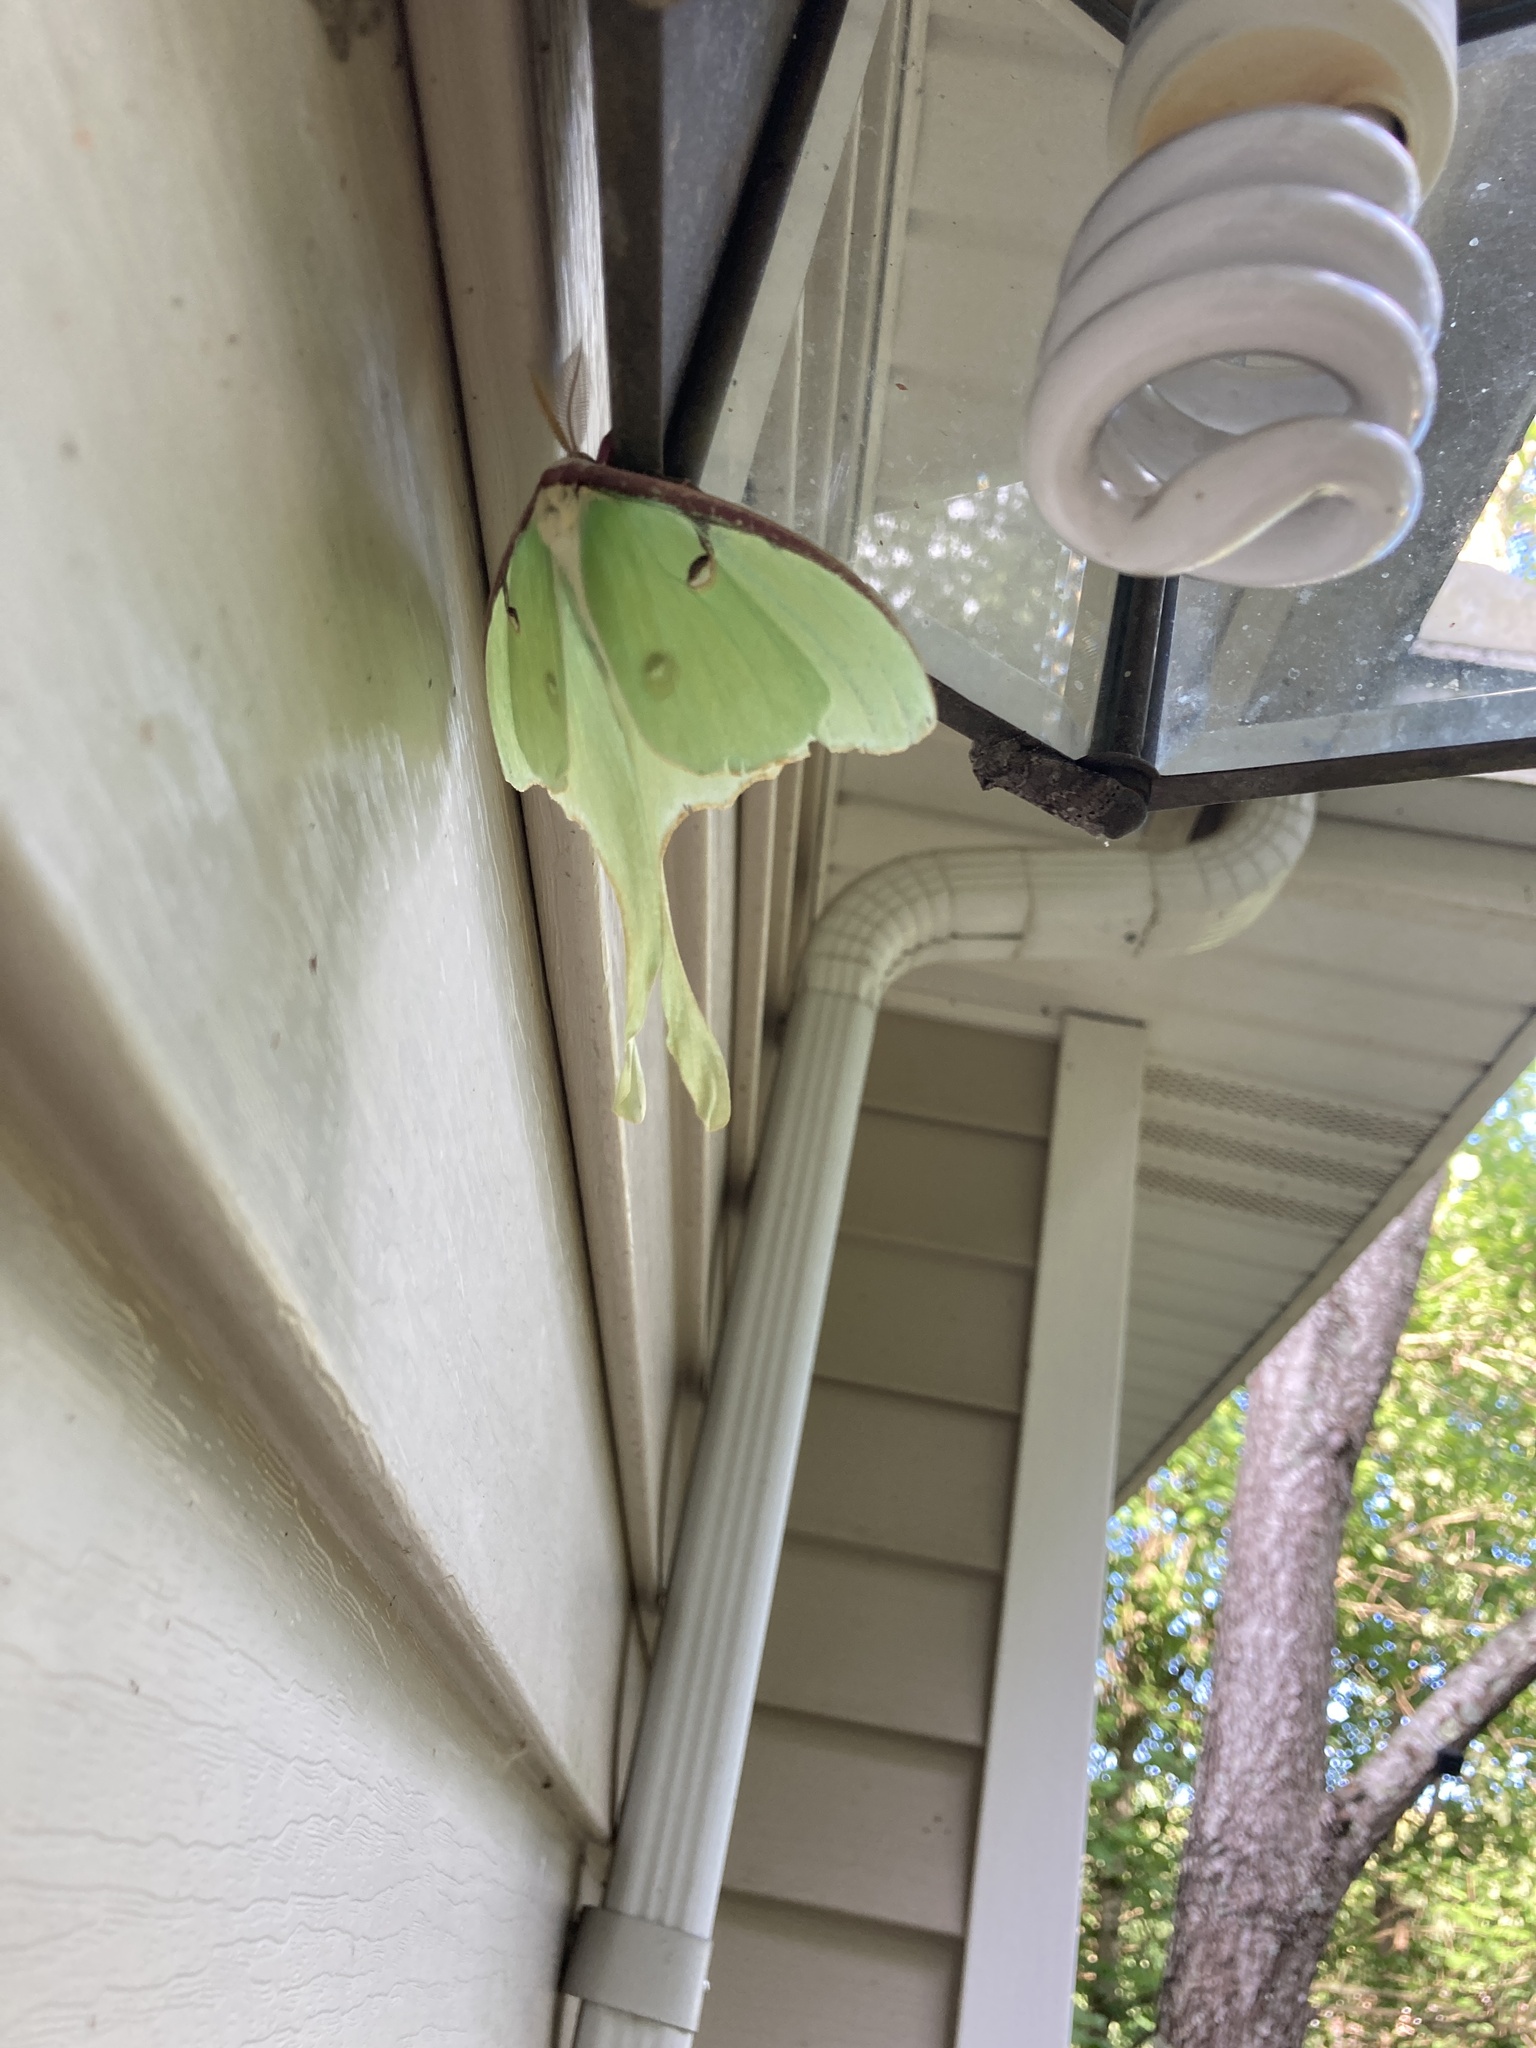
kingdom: Animalia
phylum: Arthropoda
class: Insecta
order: Lepidoptera
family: Saturniidae
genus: Actias
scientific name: Actias luna
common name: Luna moth
